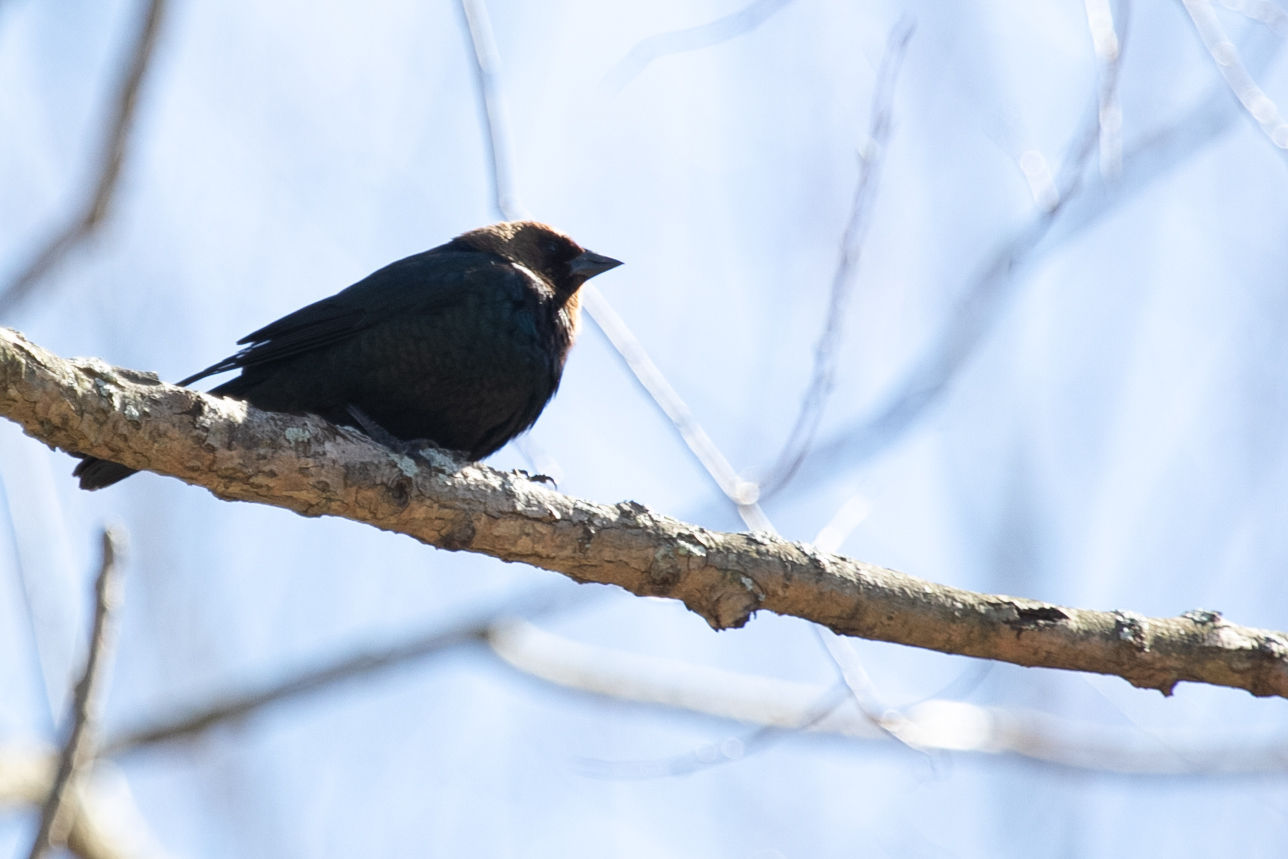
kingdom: Animalia
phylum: Chordata
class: Aves
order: Passeriformes
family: Icteridae
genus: Molothrus
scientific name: Molothrus ater
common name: Brown-headed cowbird
